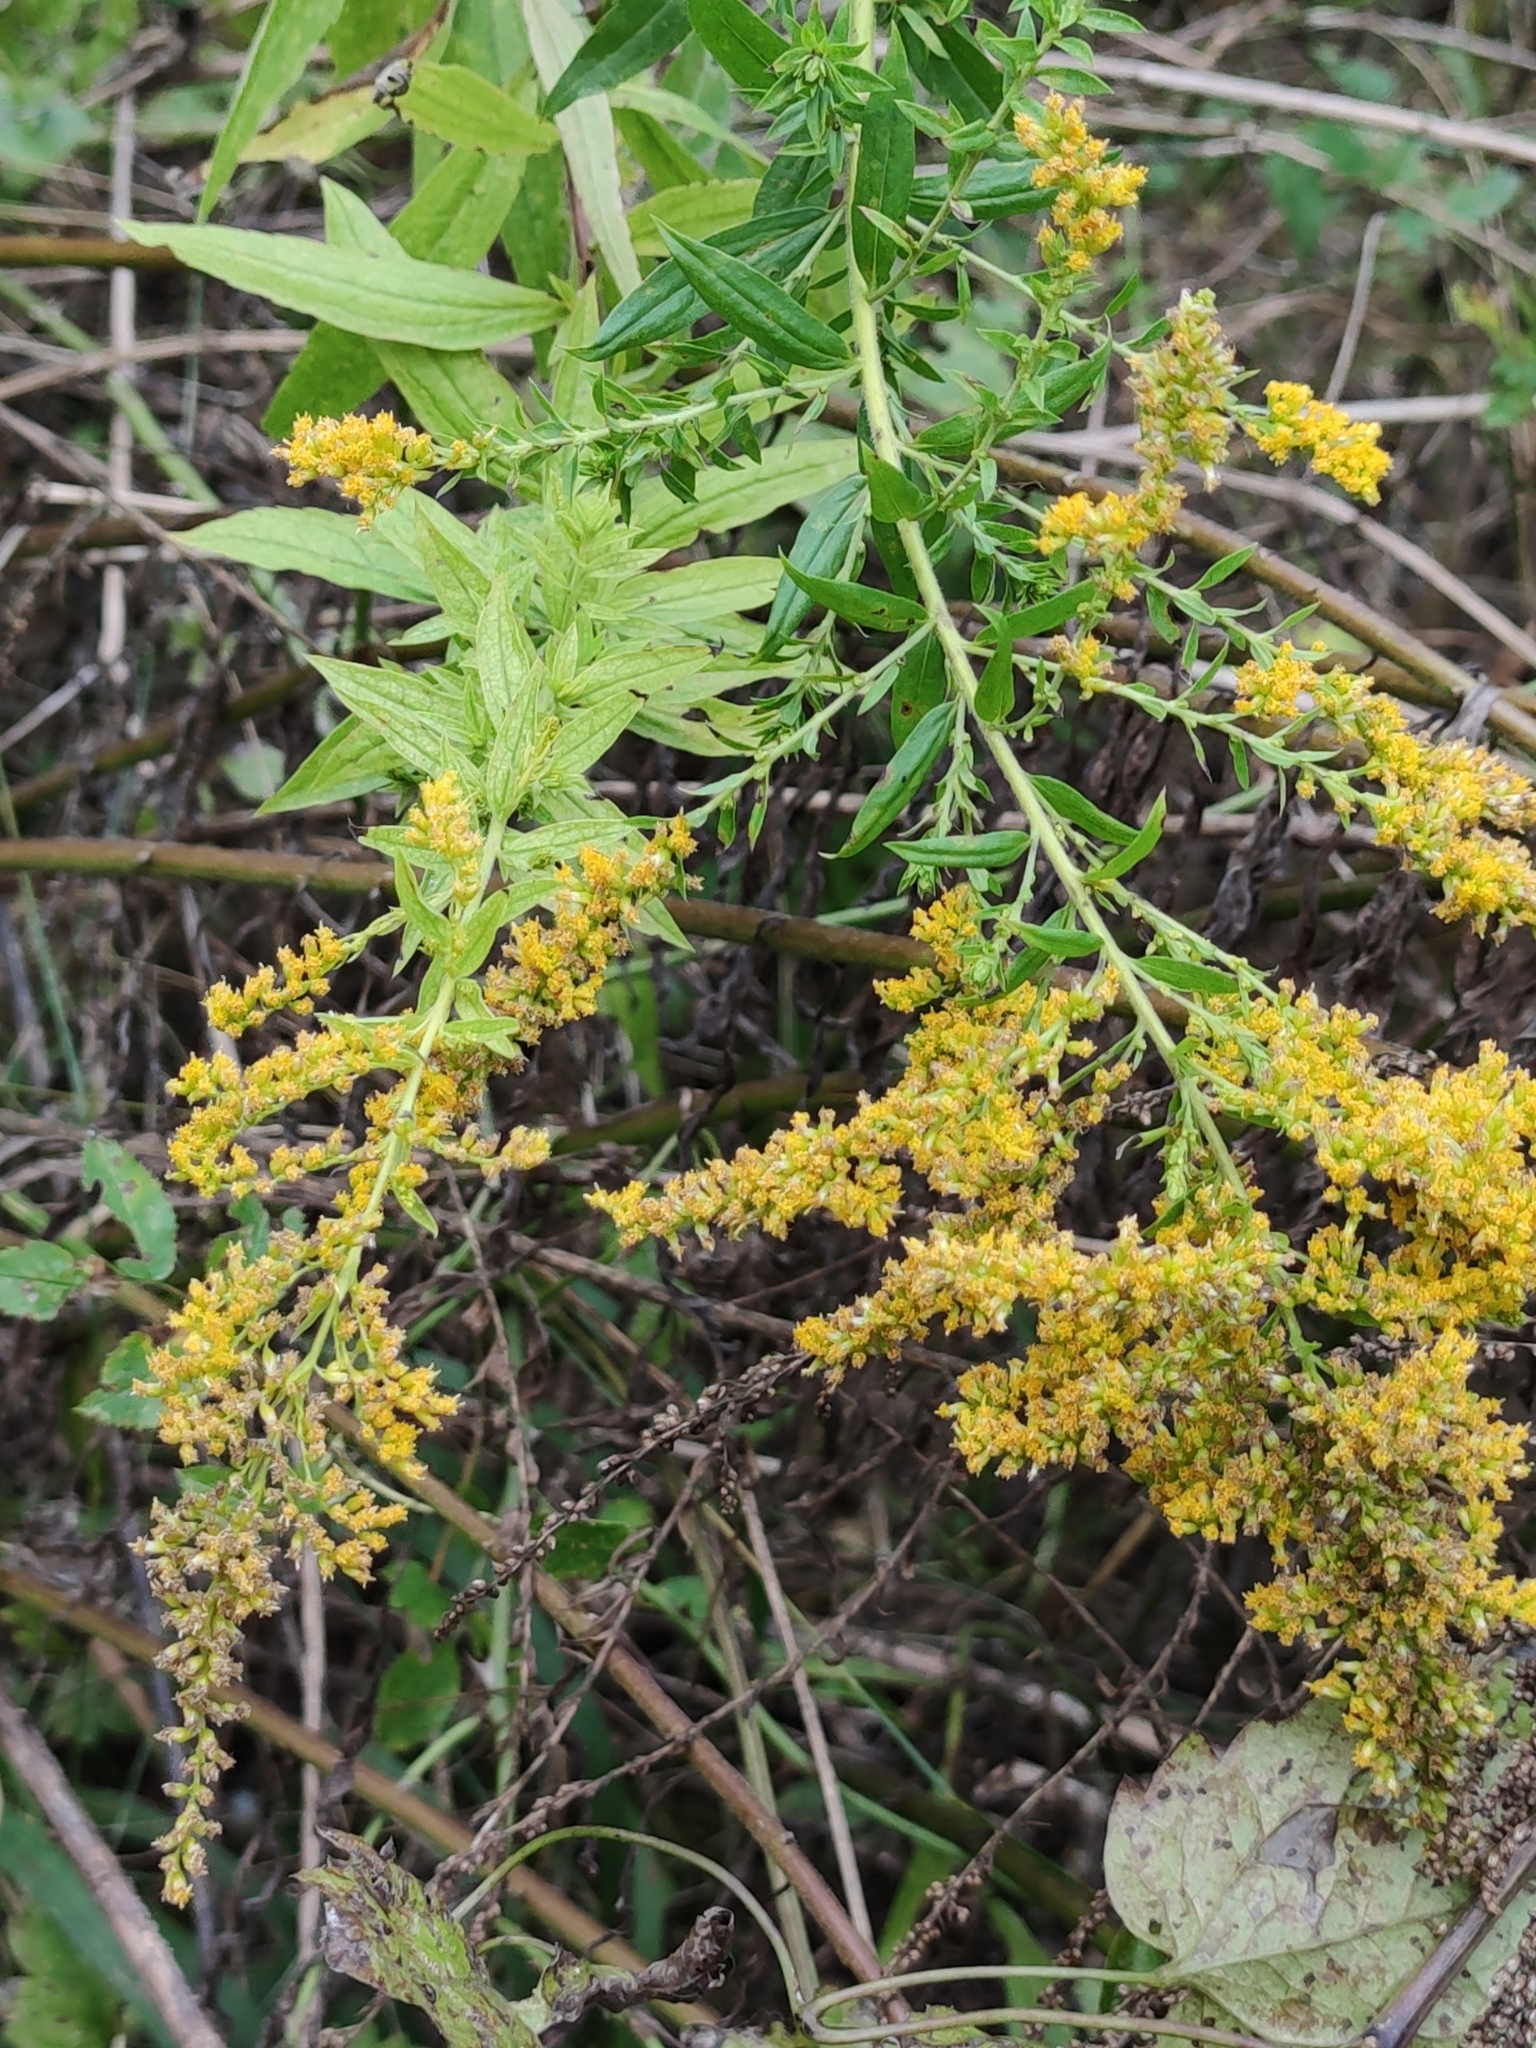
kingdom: Plantae
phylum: Tracheophyta
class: Magnoliopsida
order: Asterales
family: Asteraceae
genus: Solidago
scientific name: Solidago canadensis
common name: Canada goldenrod
